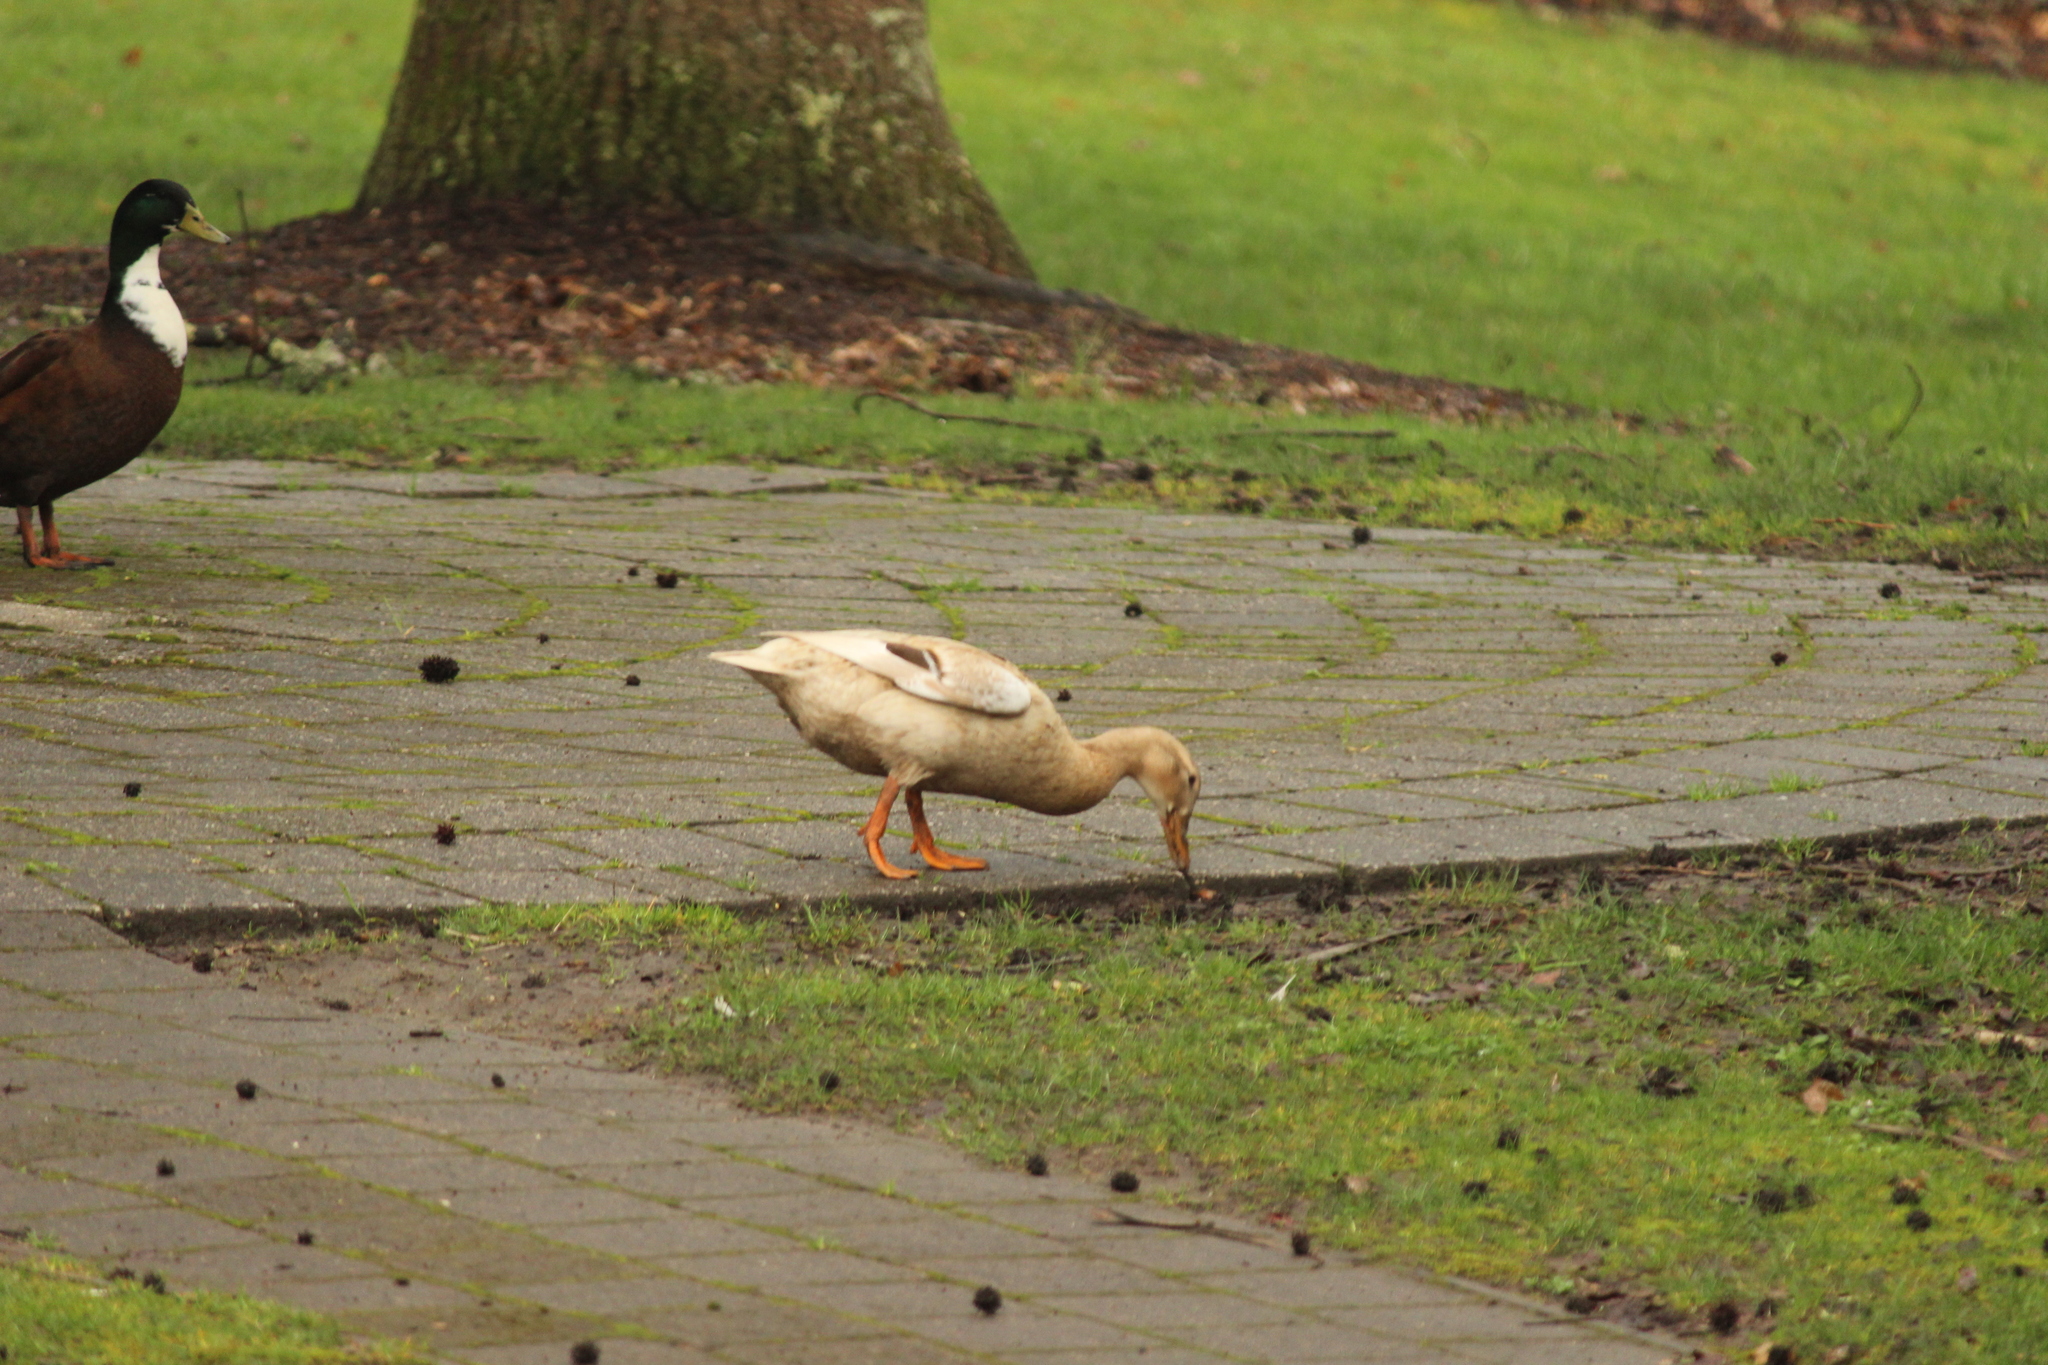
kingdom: Animalia
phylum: Chordata
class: Aves
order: Anseriformes
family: Anatidae
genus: Anas
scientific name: Anas platyrhynchos
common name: Mallard
